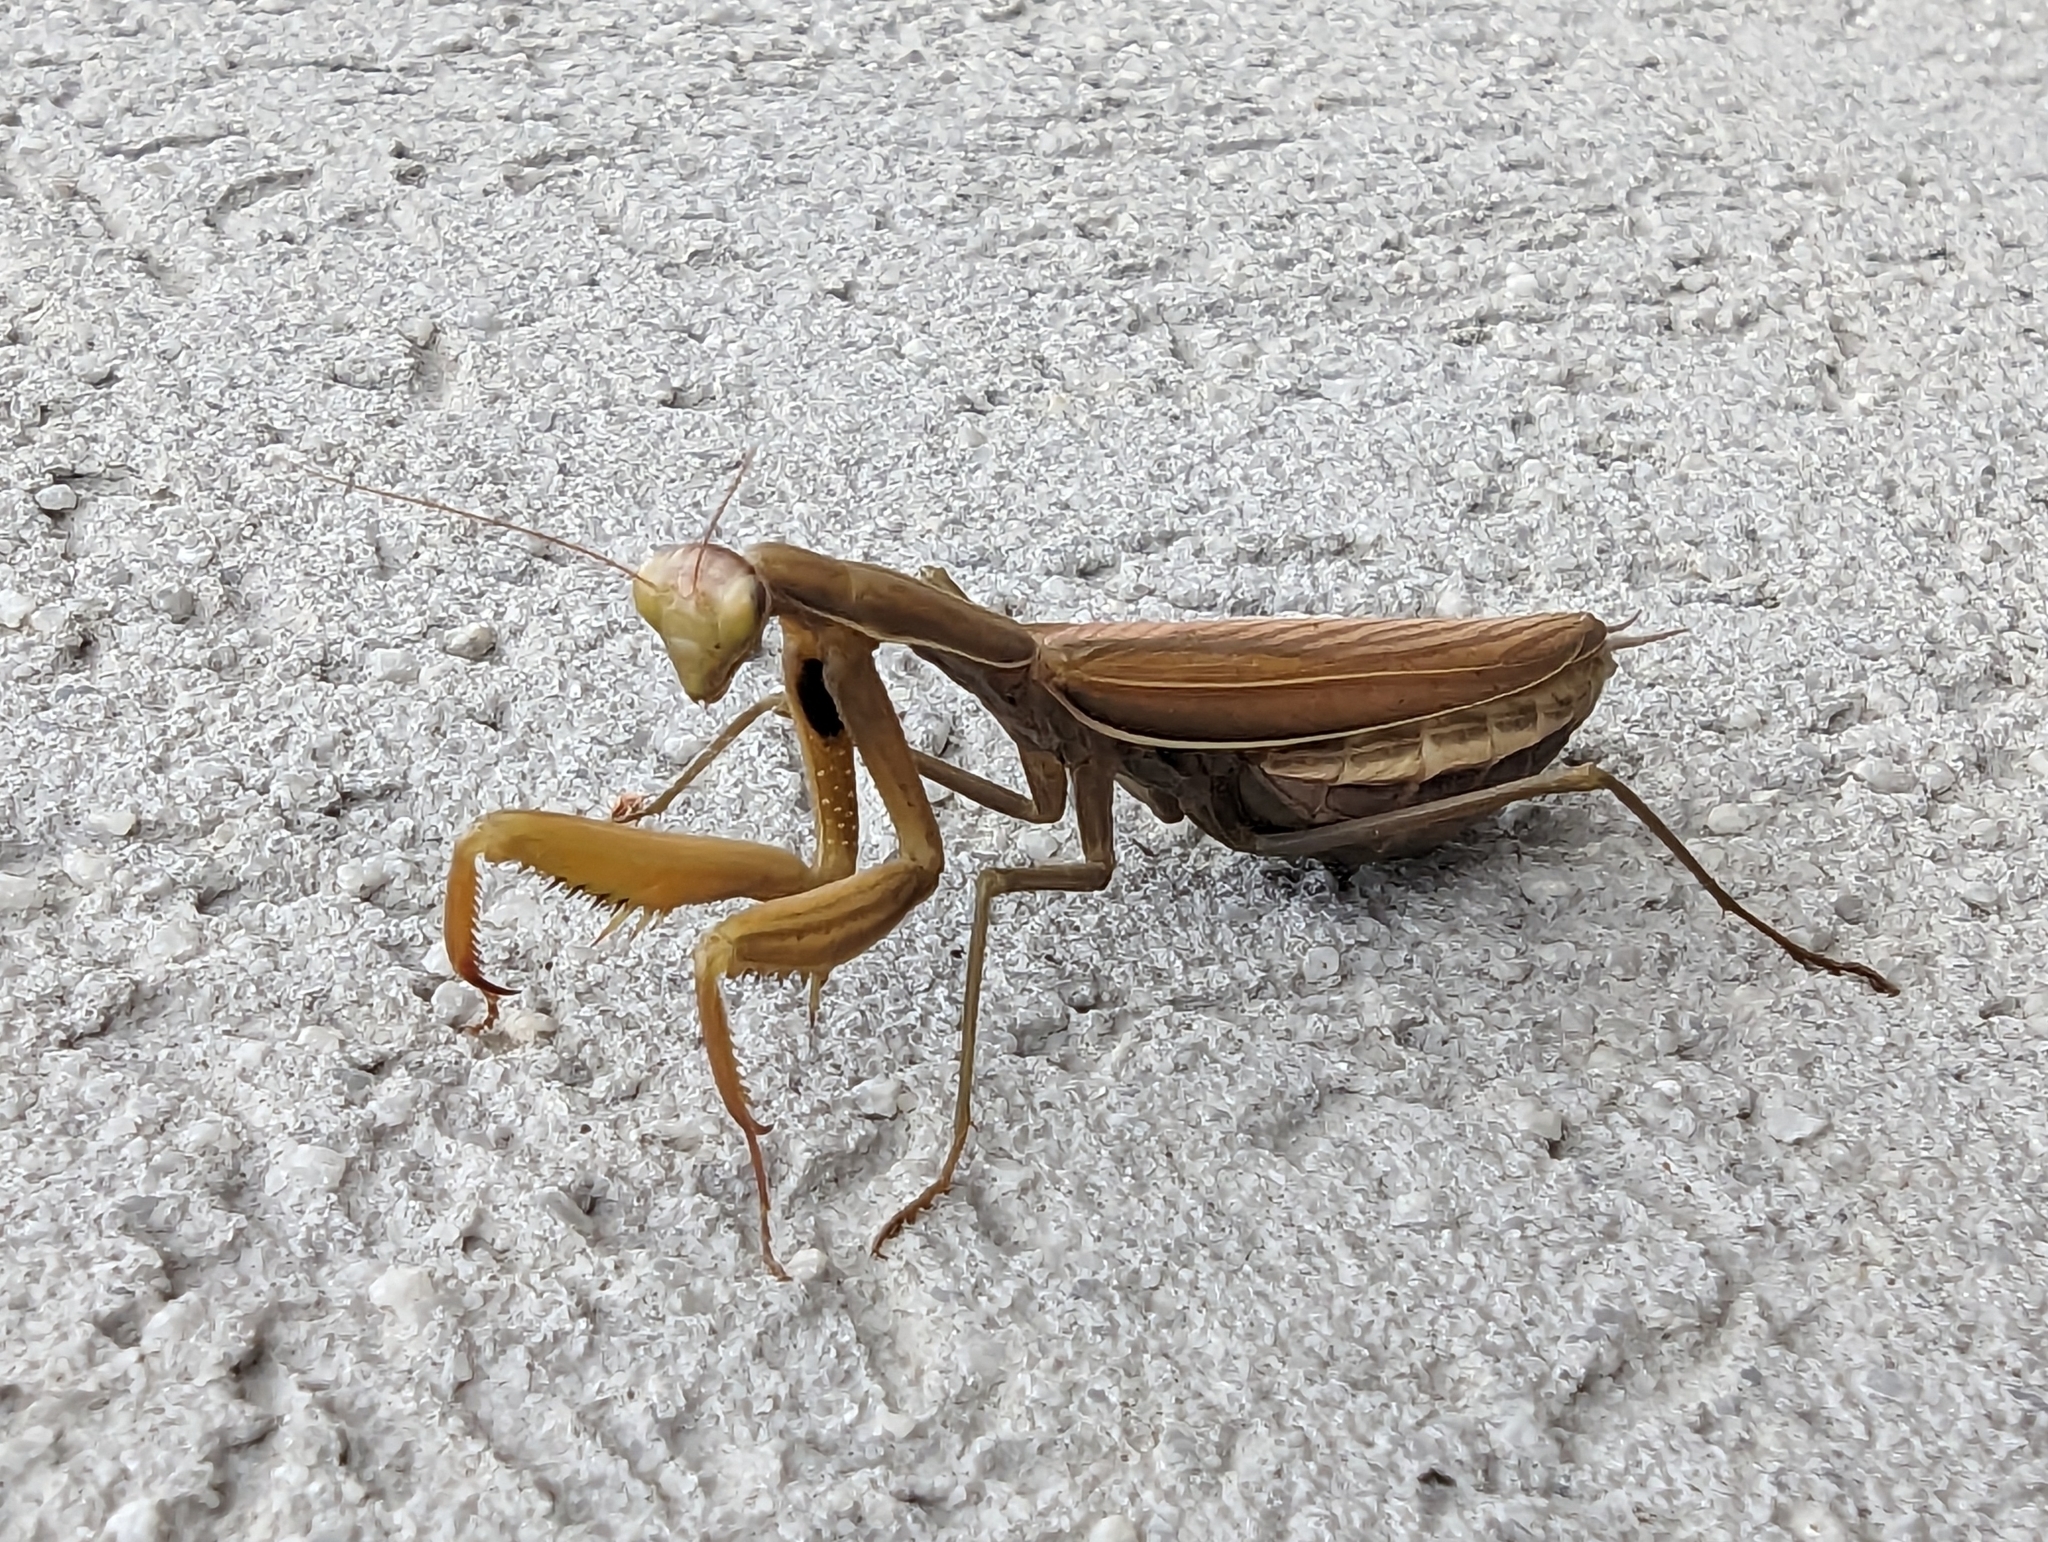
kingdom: Animalia
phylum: Arthropoda
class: Insecta
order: Mantodea
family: Mantidae
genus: Mantis
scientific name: Mantis religiosa
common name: Praying mantis
